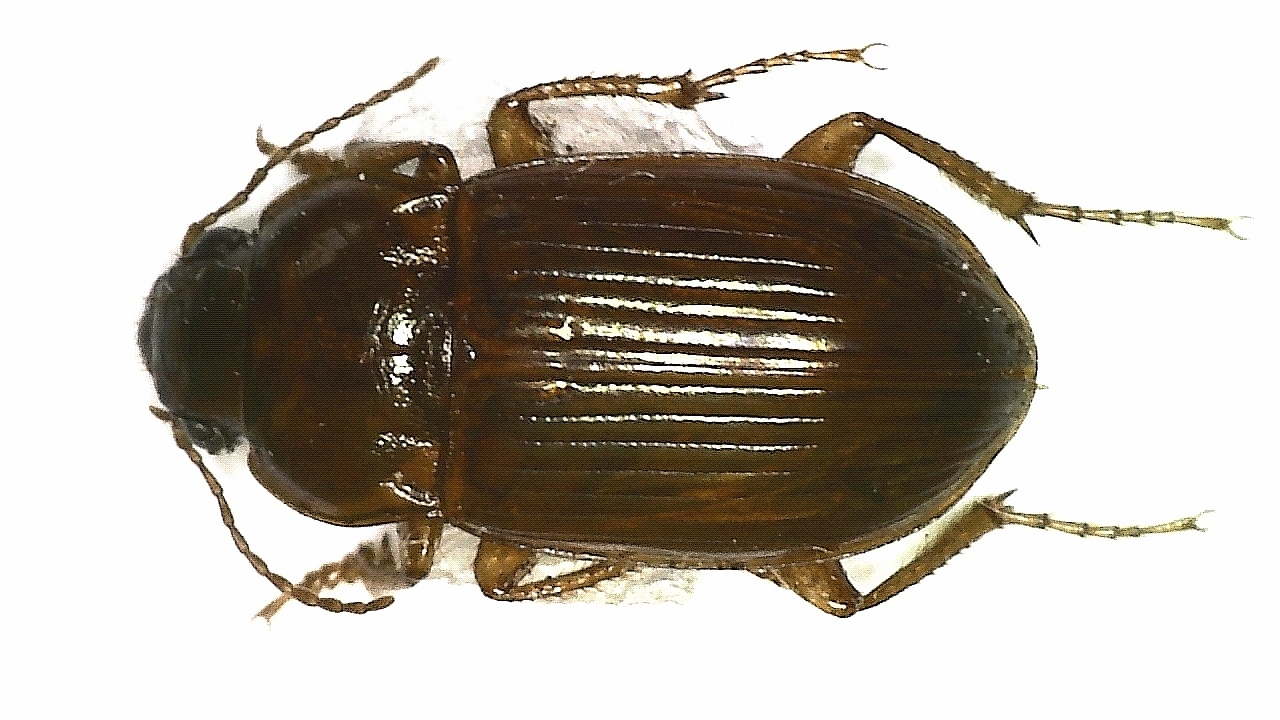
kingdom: Animalia
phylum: Arthropoda
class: Insecta
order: Coleoptera
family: Carabidae
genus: Amara
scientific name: Amara fulva
